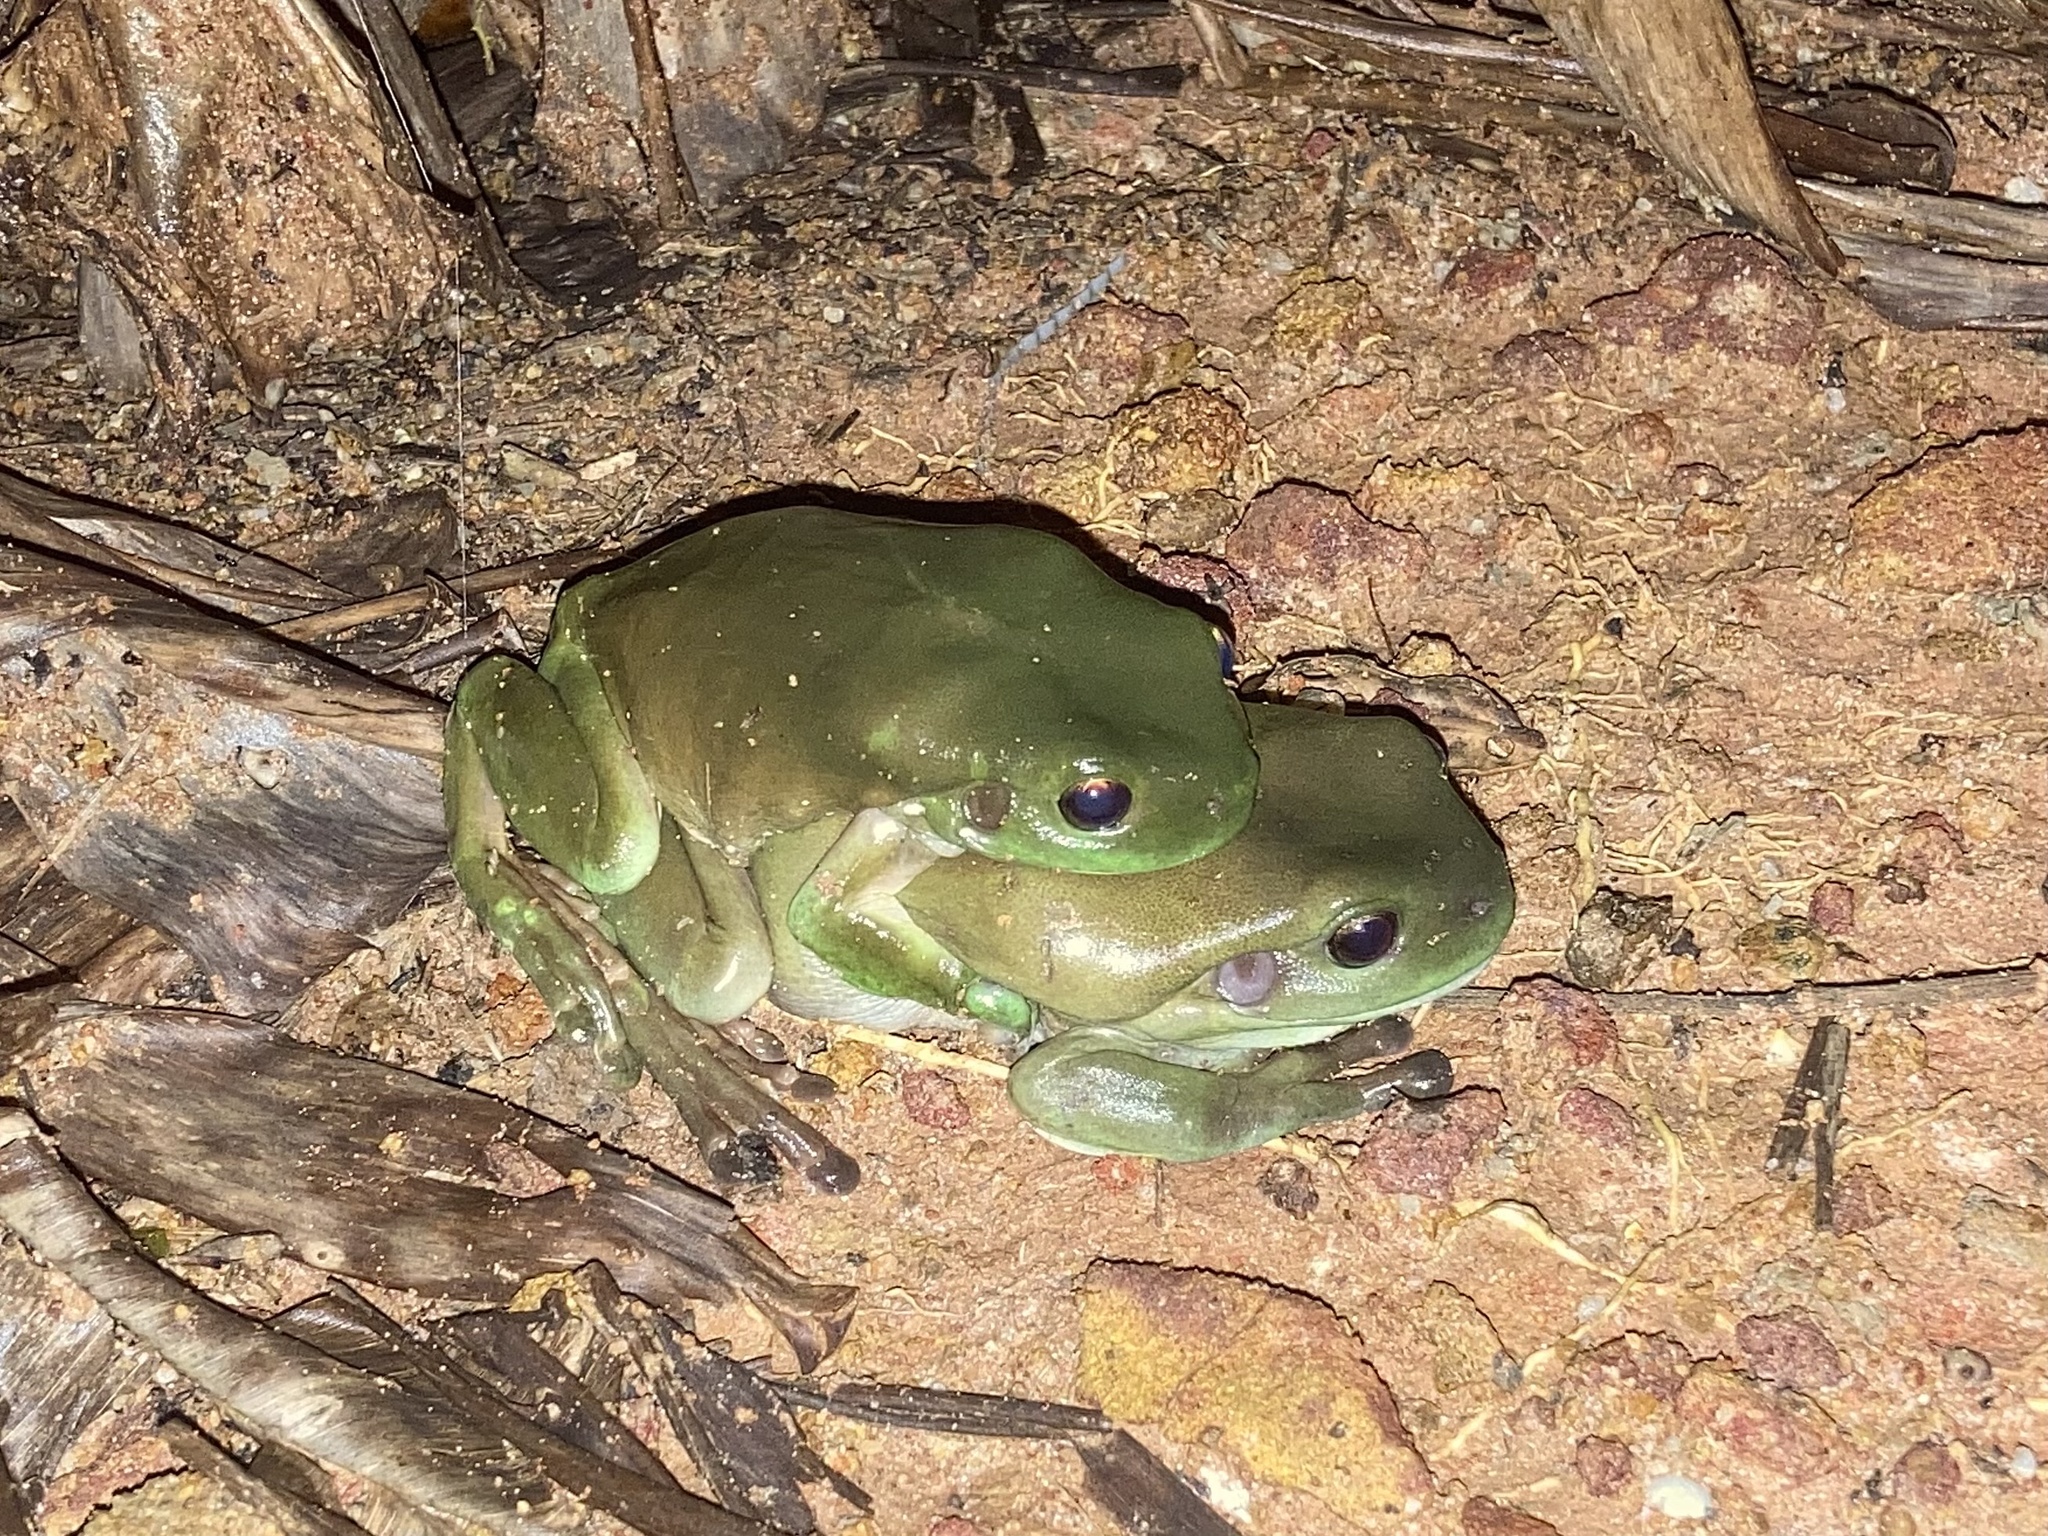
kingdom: Animalia
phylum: Chordata
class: Amphibia
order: Anura
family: Pelodryadidae
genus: Ranoidea
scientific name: Ranoidea caerulea
